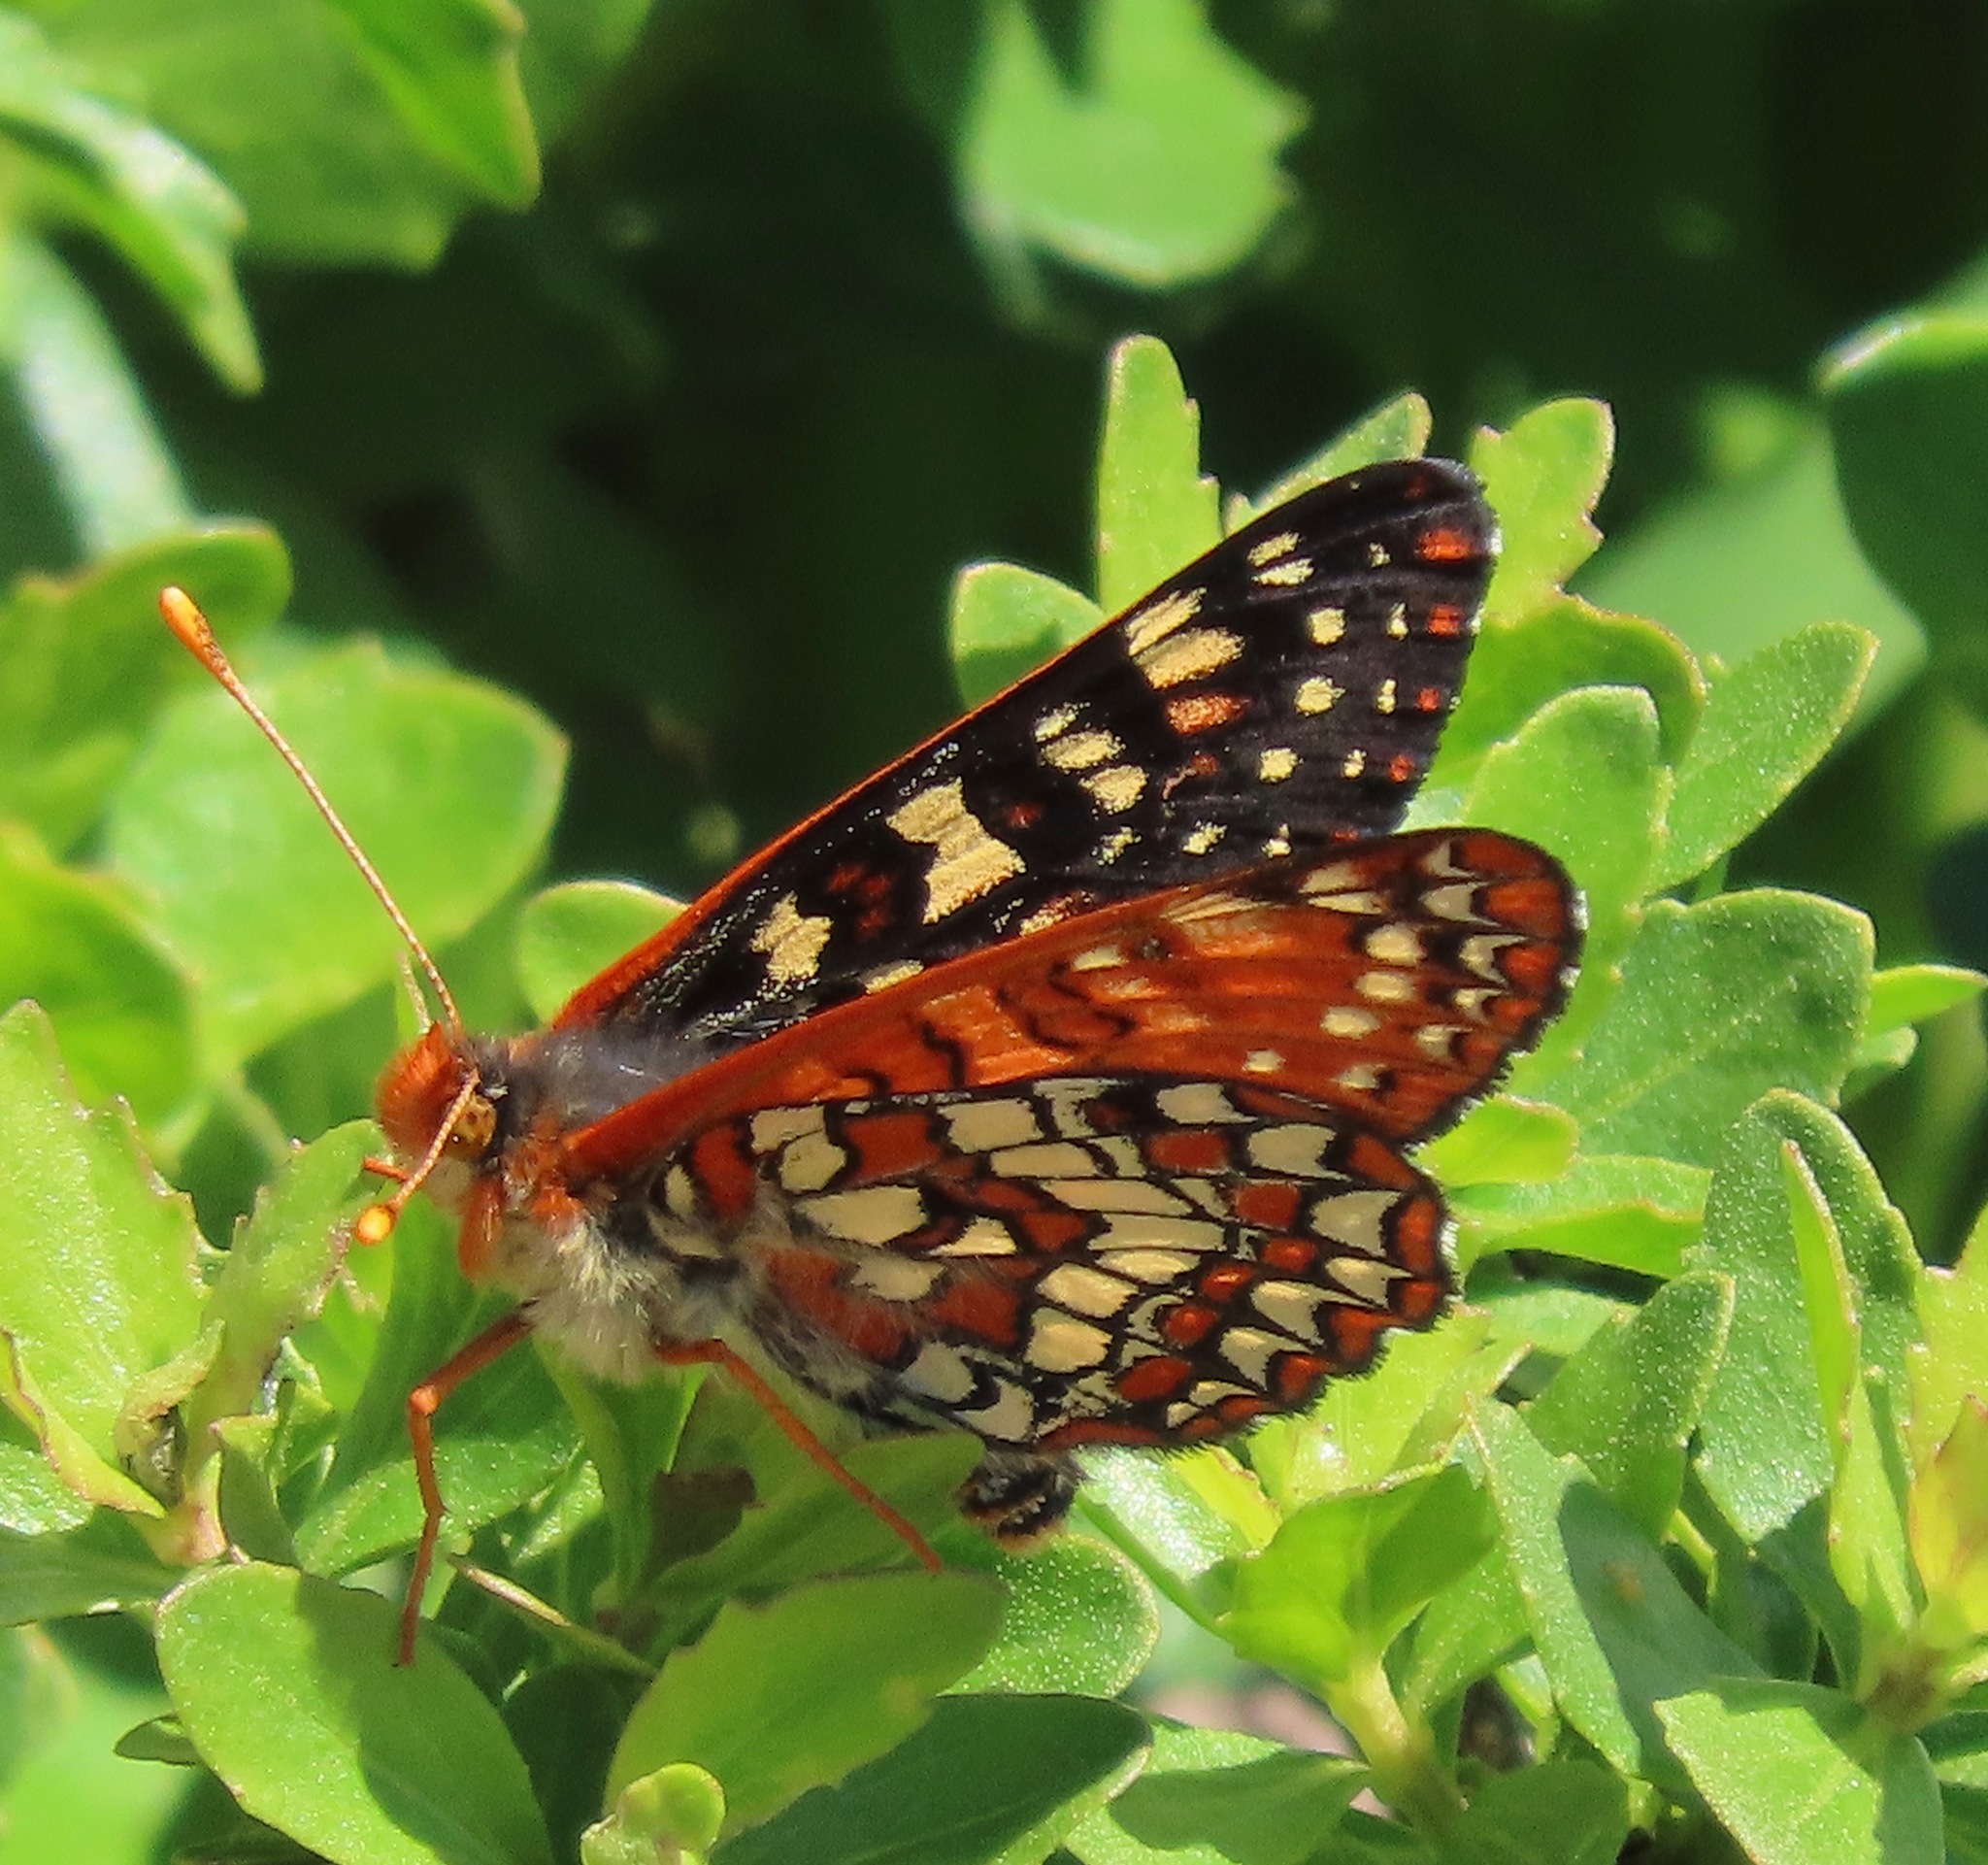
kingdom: Animalia
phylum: Arthropoda
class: Insecta
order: Lepidoptera
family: Nymphalidae
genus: Occidryas
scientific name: Occidryas chalcedona
